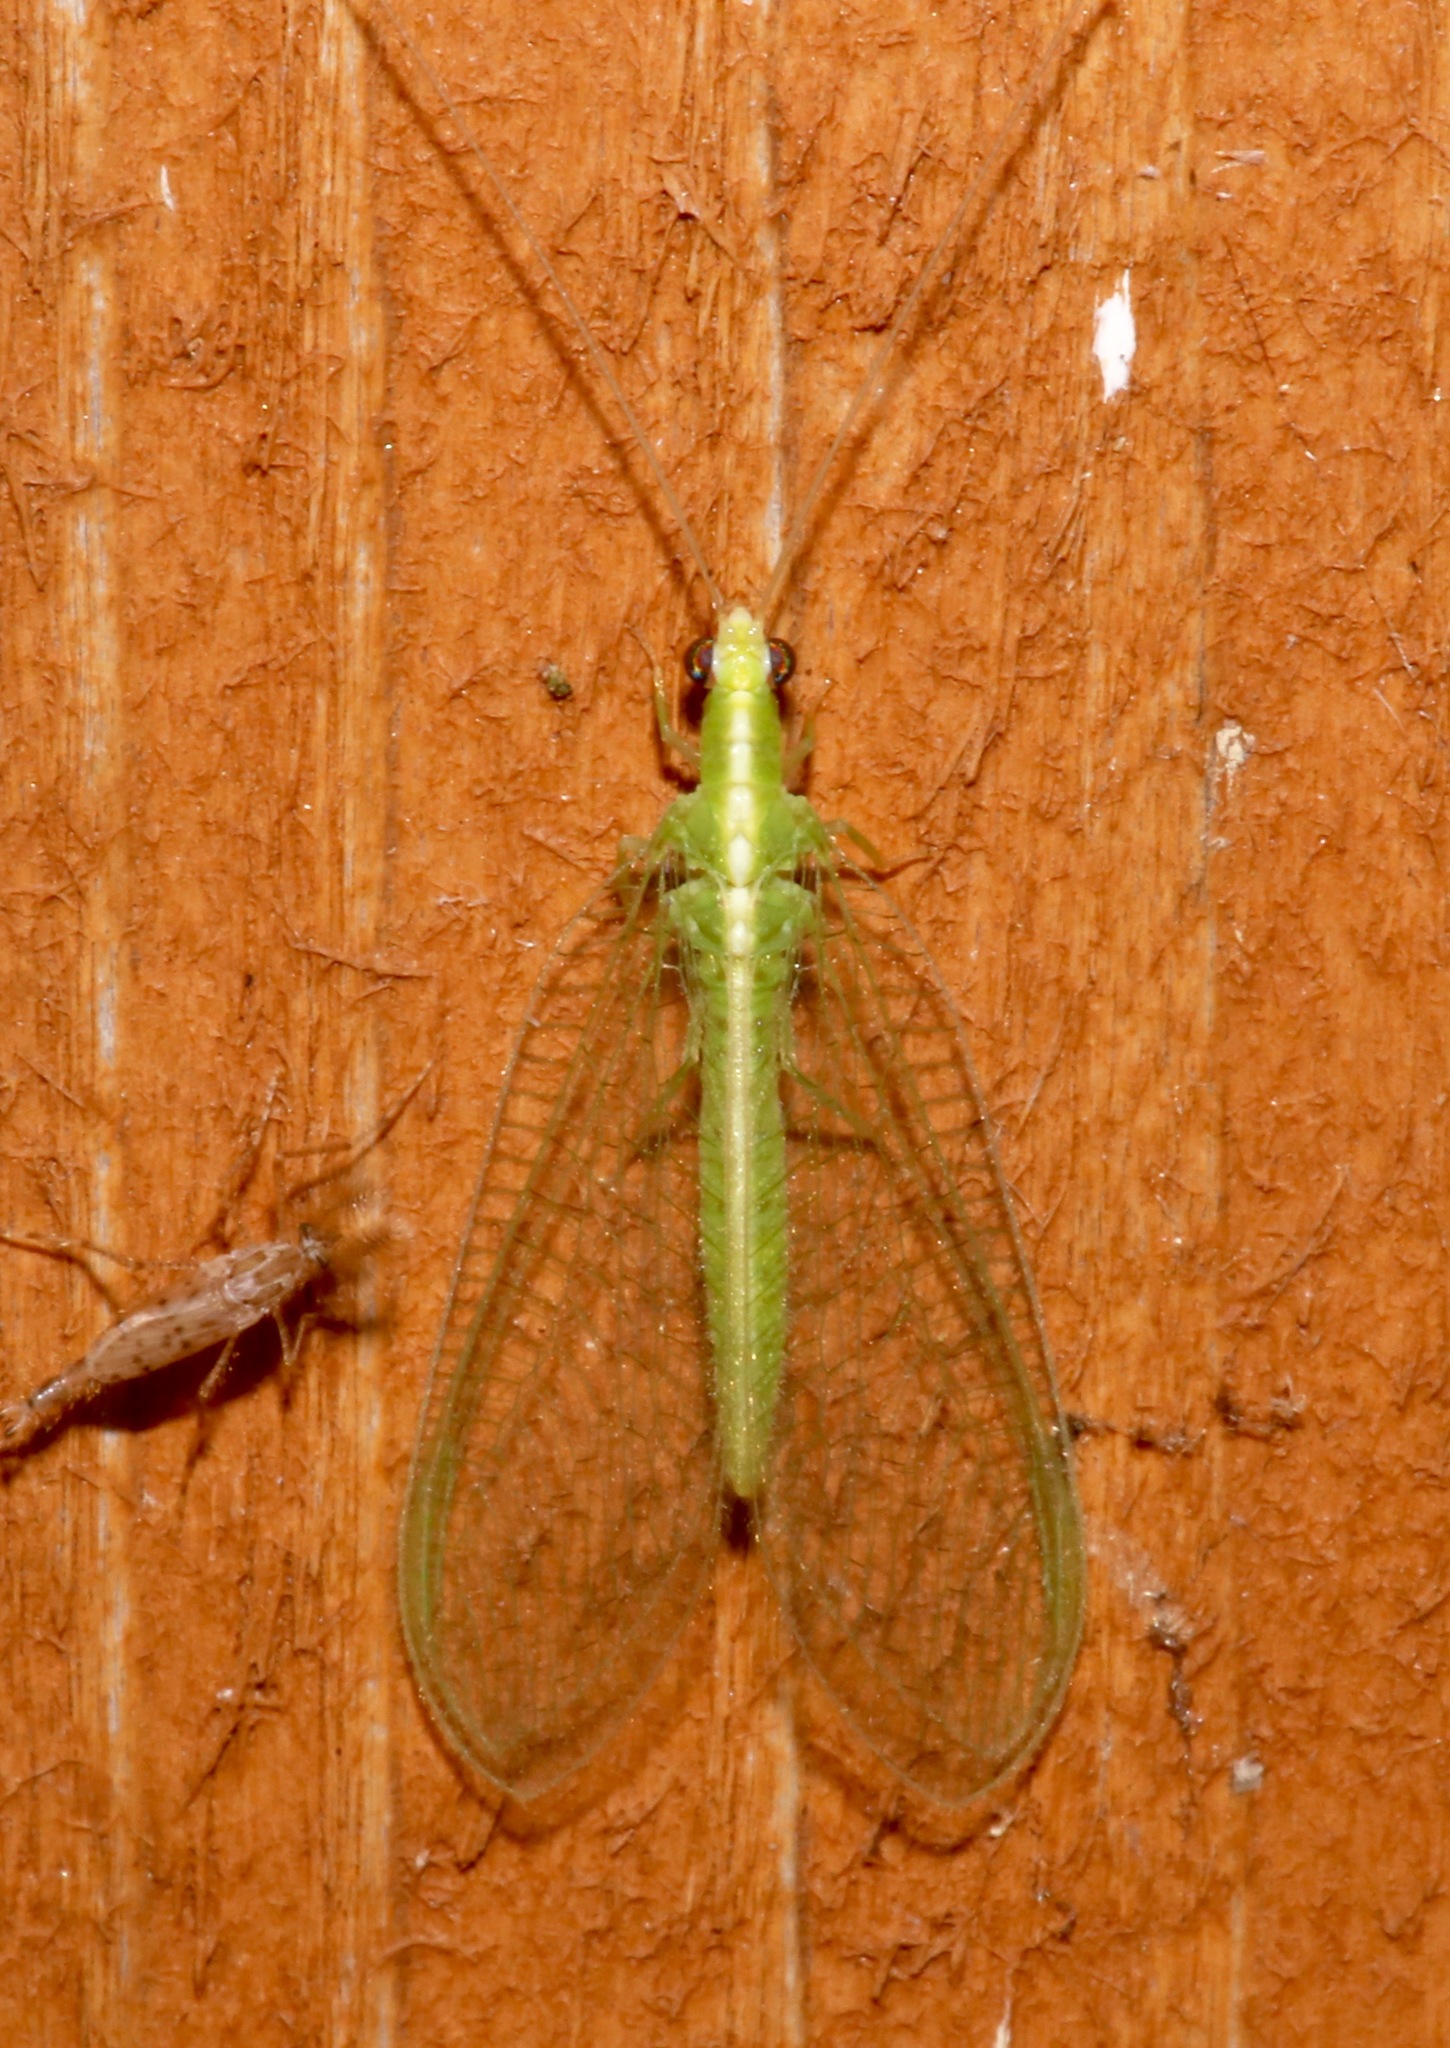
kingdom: Animalia
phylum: Arthropoda
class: Insecta
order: Neuroptera
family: Chrysopidae
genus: Chrysoperla
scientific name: Chrysoperla
